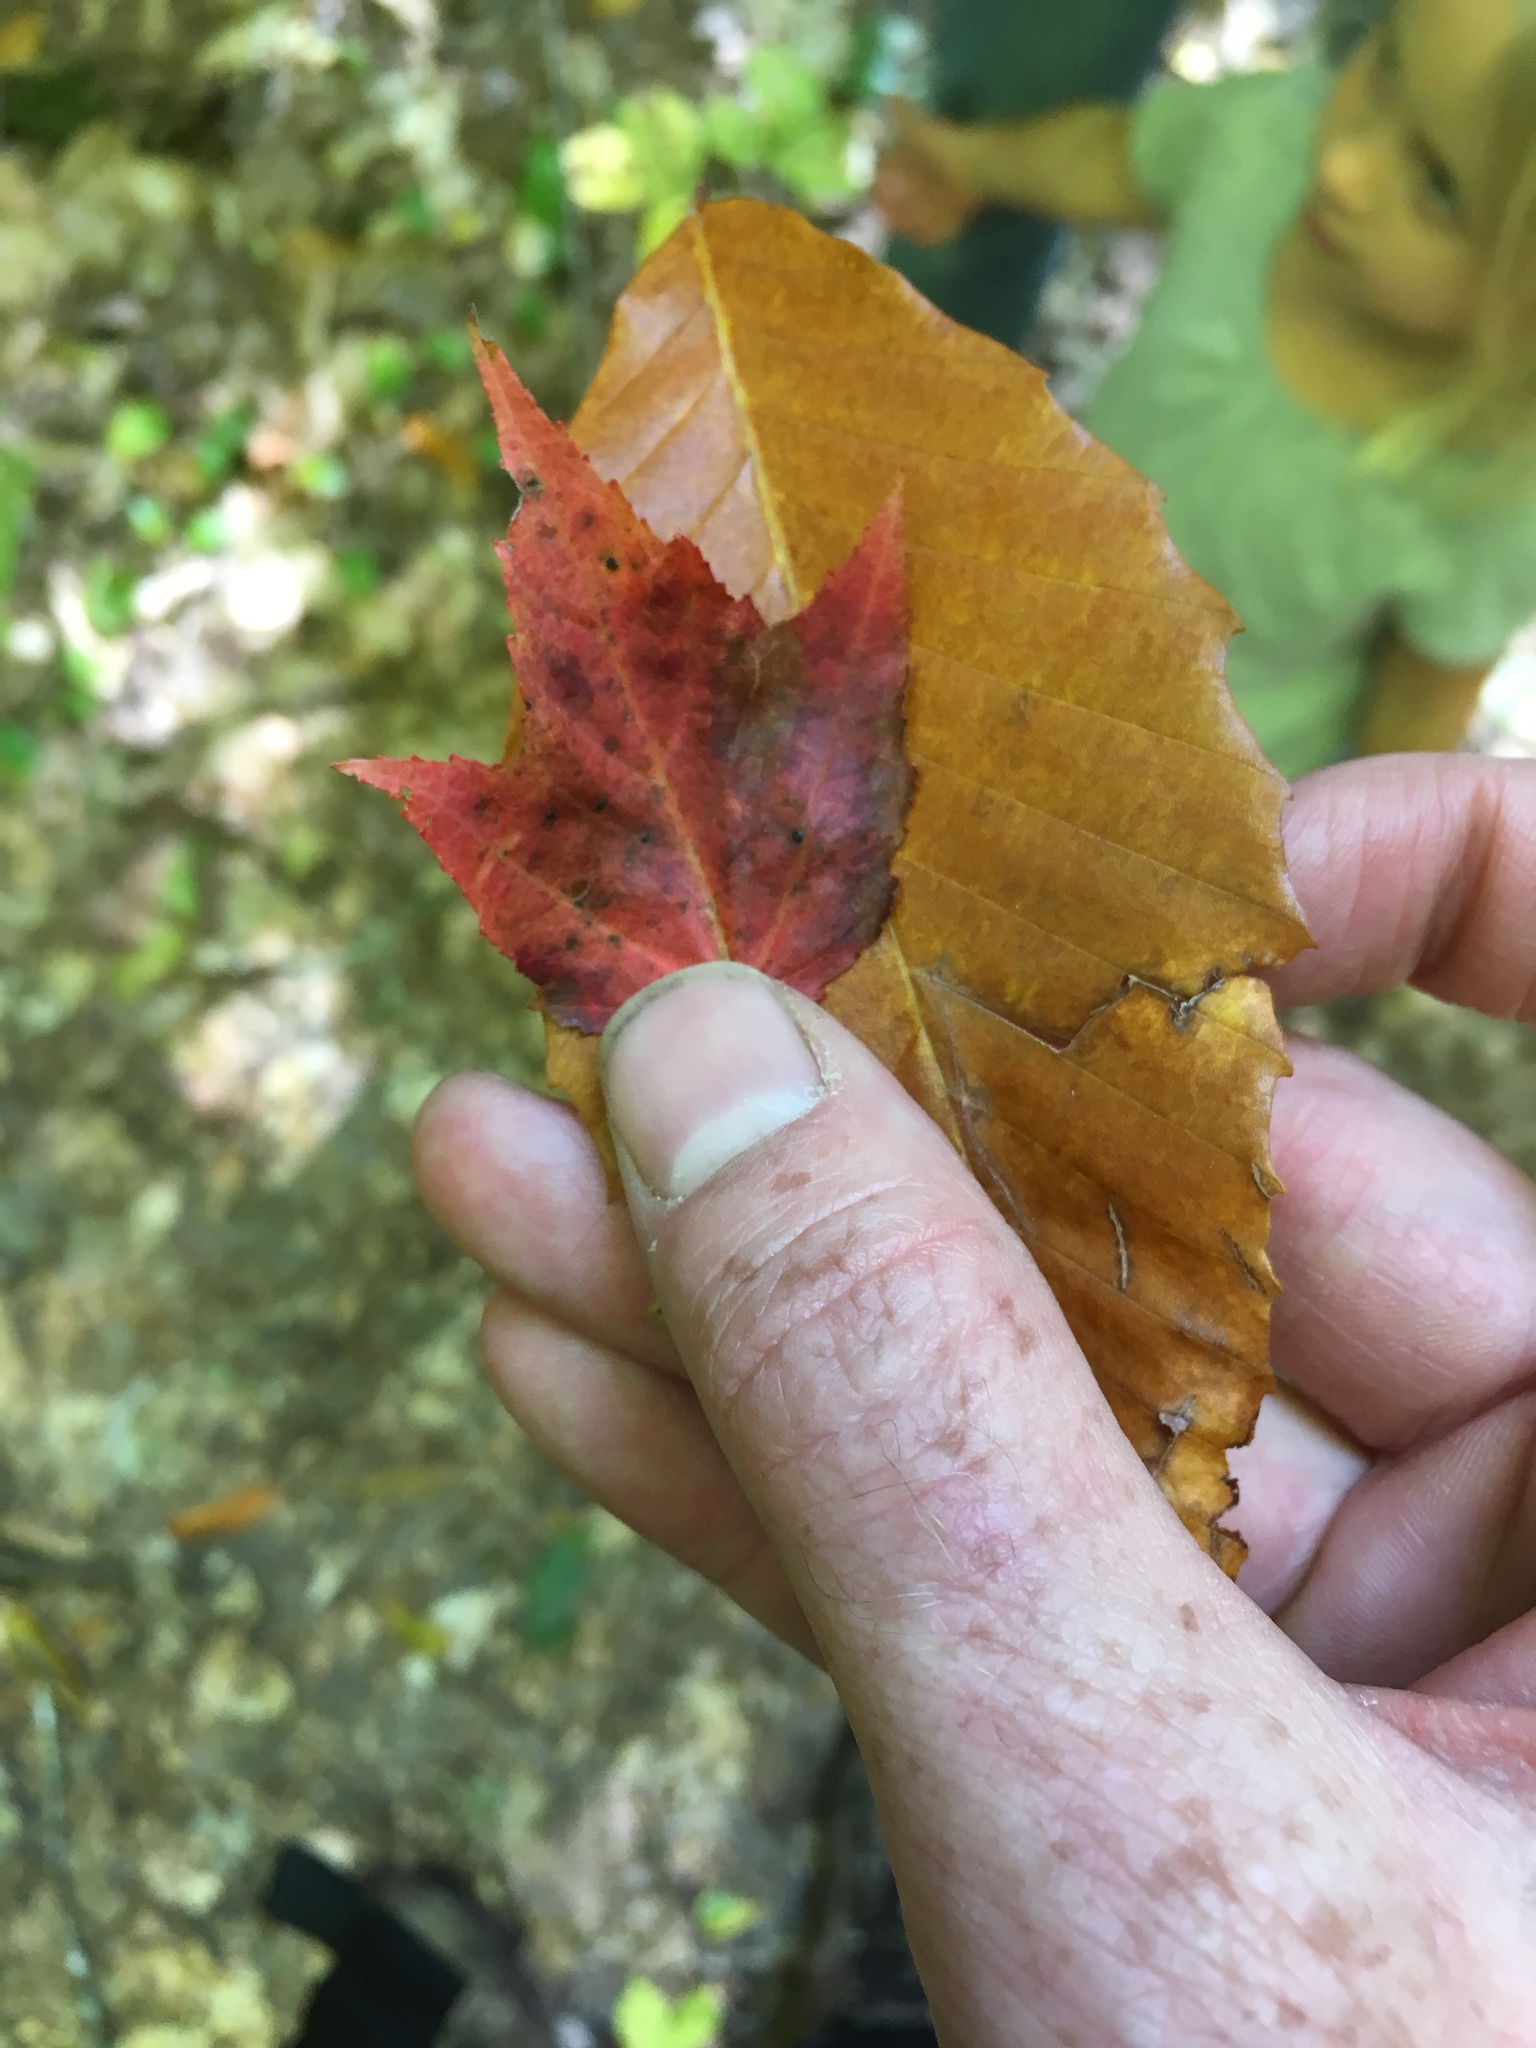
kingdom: Plantae
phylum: Tracheophyta
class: Magnoliopsida
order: Sapindales
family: Sapindaceae
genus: Acer
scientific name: Acer rubrum
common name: Red maple
